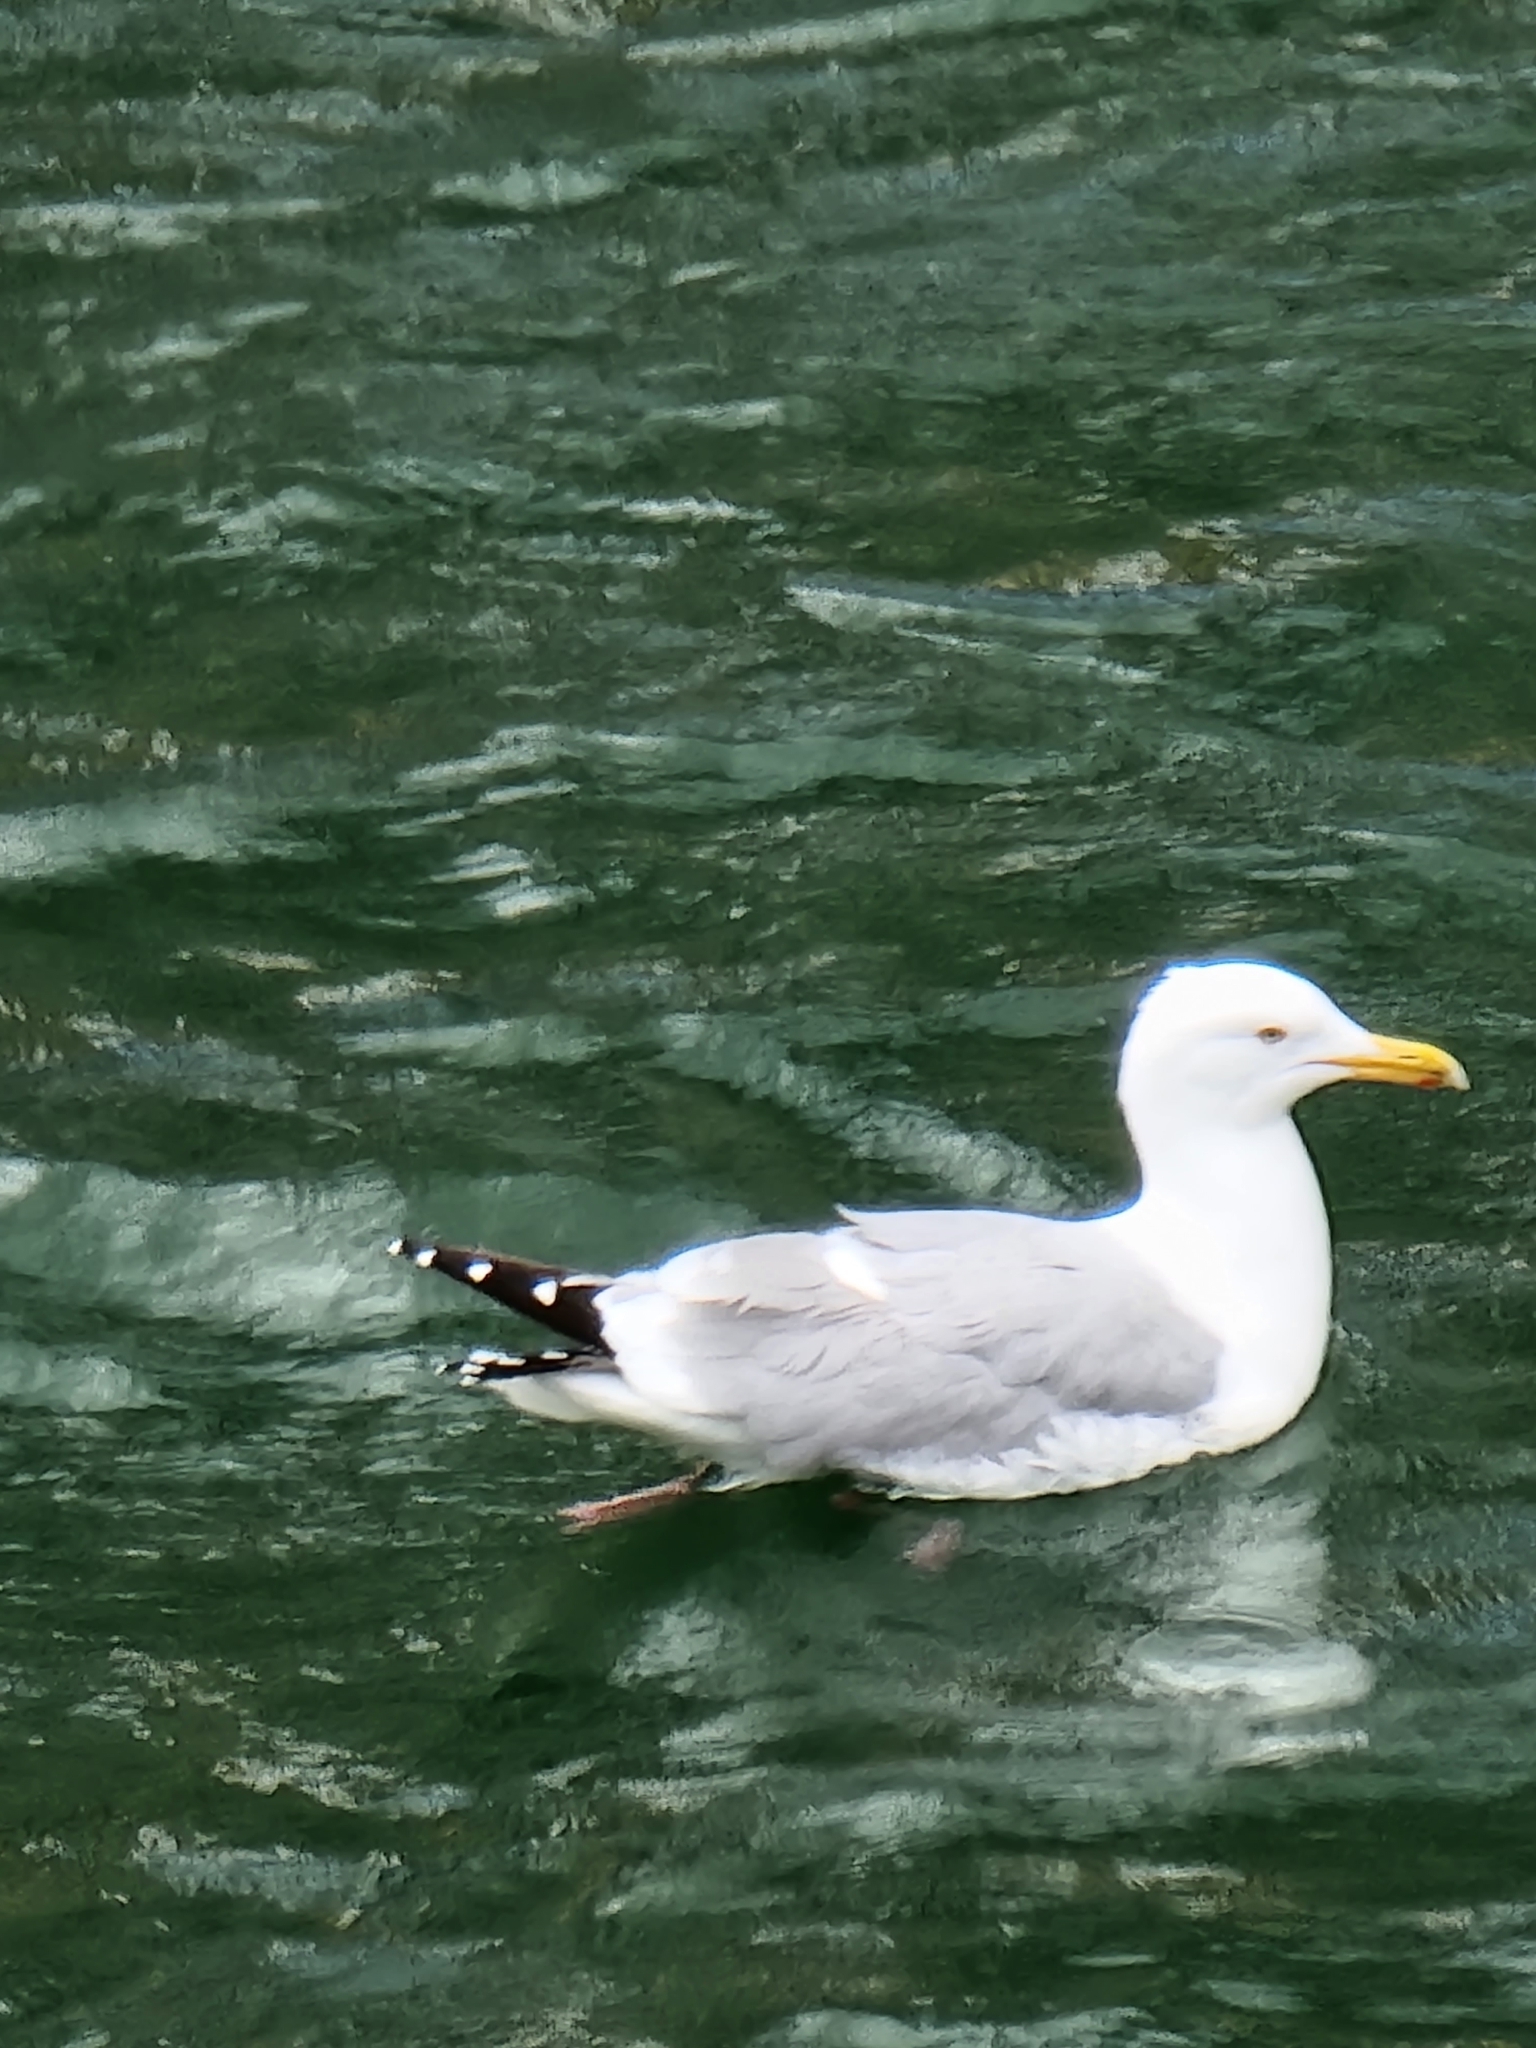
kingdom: Animalia
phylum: Chordata
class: Aves
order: Charadriiformes
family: Laridae
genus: Larus
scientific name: Larus argentatus
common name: Herring gull
